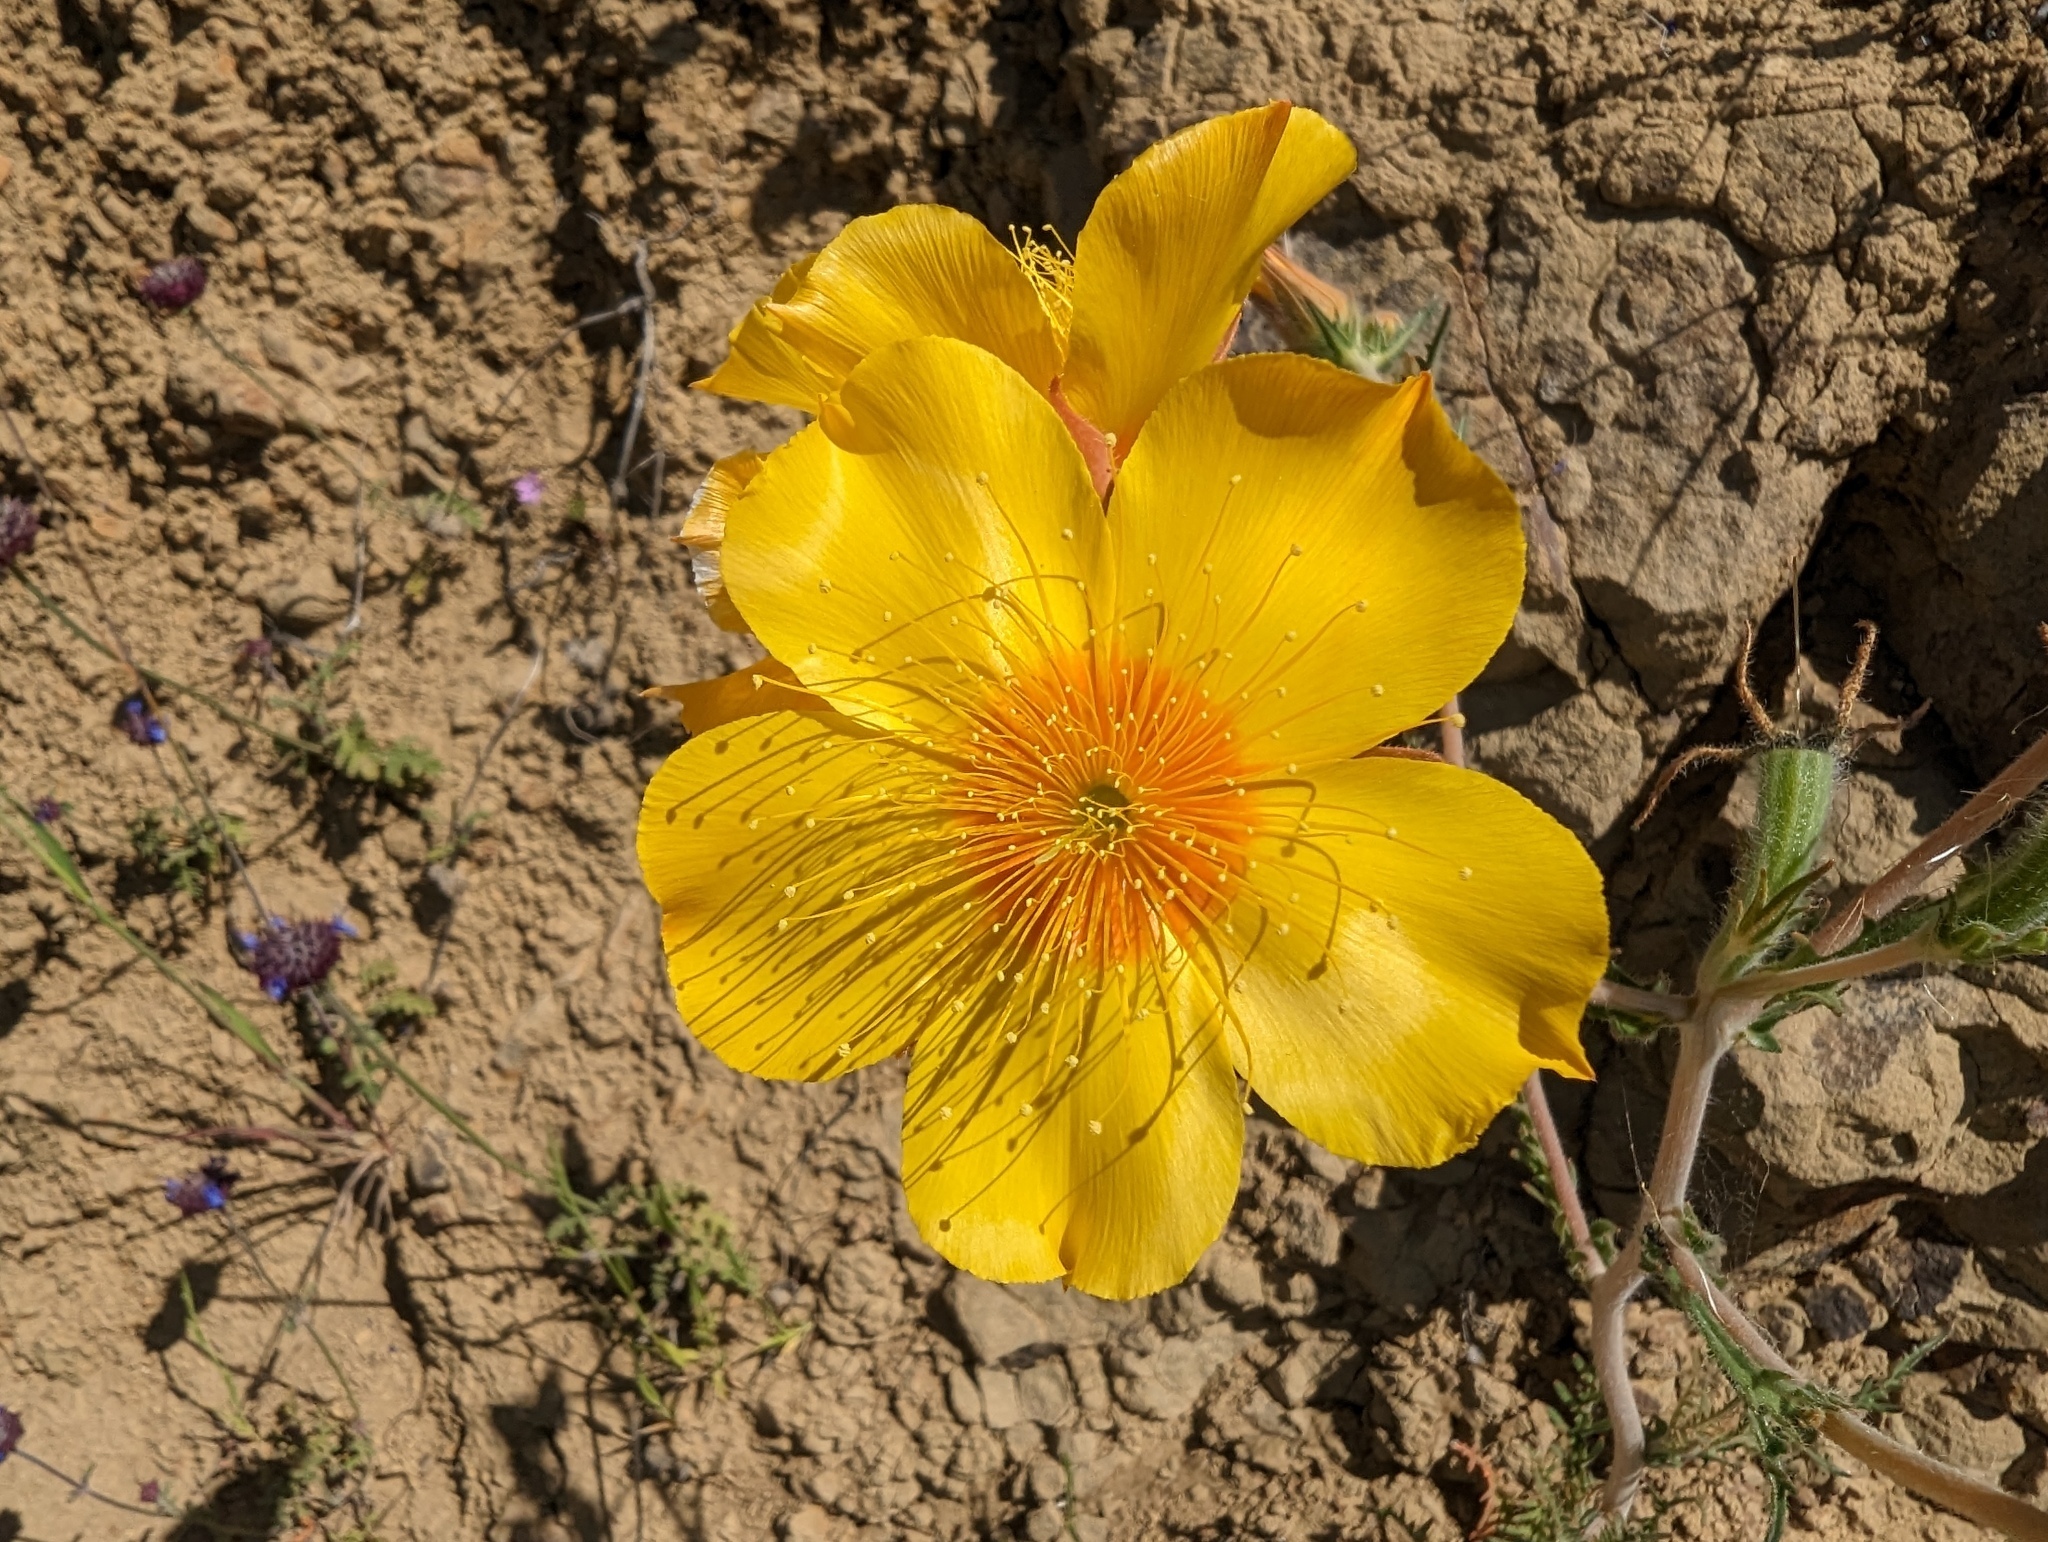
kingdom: Plantae
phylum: Tracheophyta
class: Magnoliopsida
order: Cornales
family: Loasaceae
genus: Mentzelia
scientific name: Mentzelia lindleyi
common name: Golden bartonia
